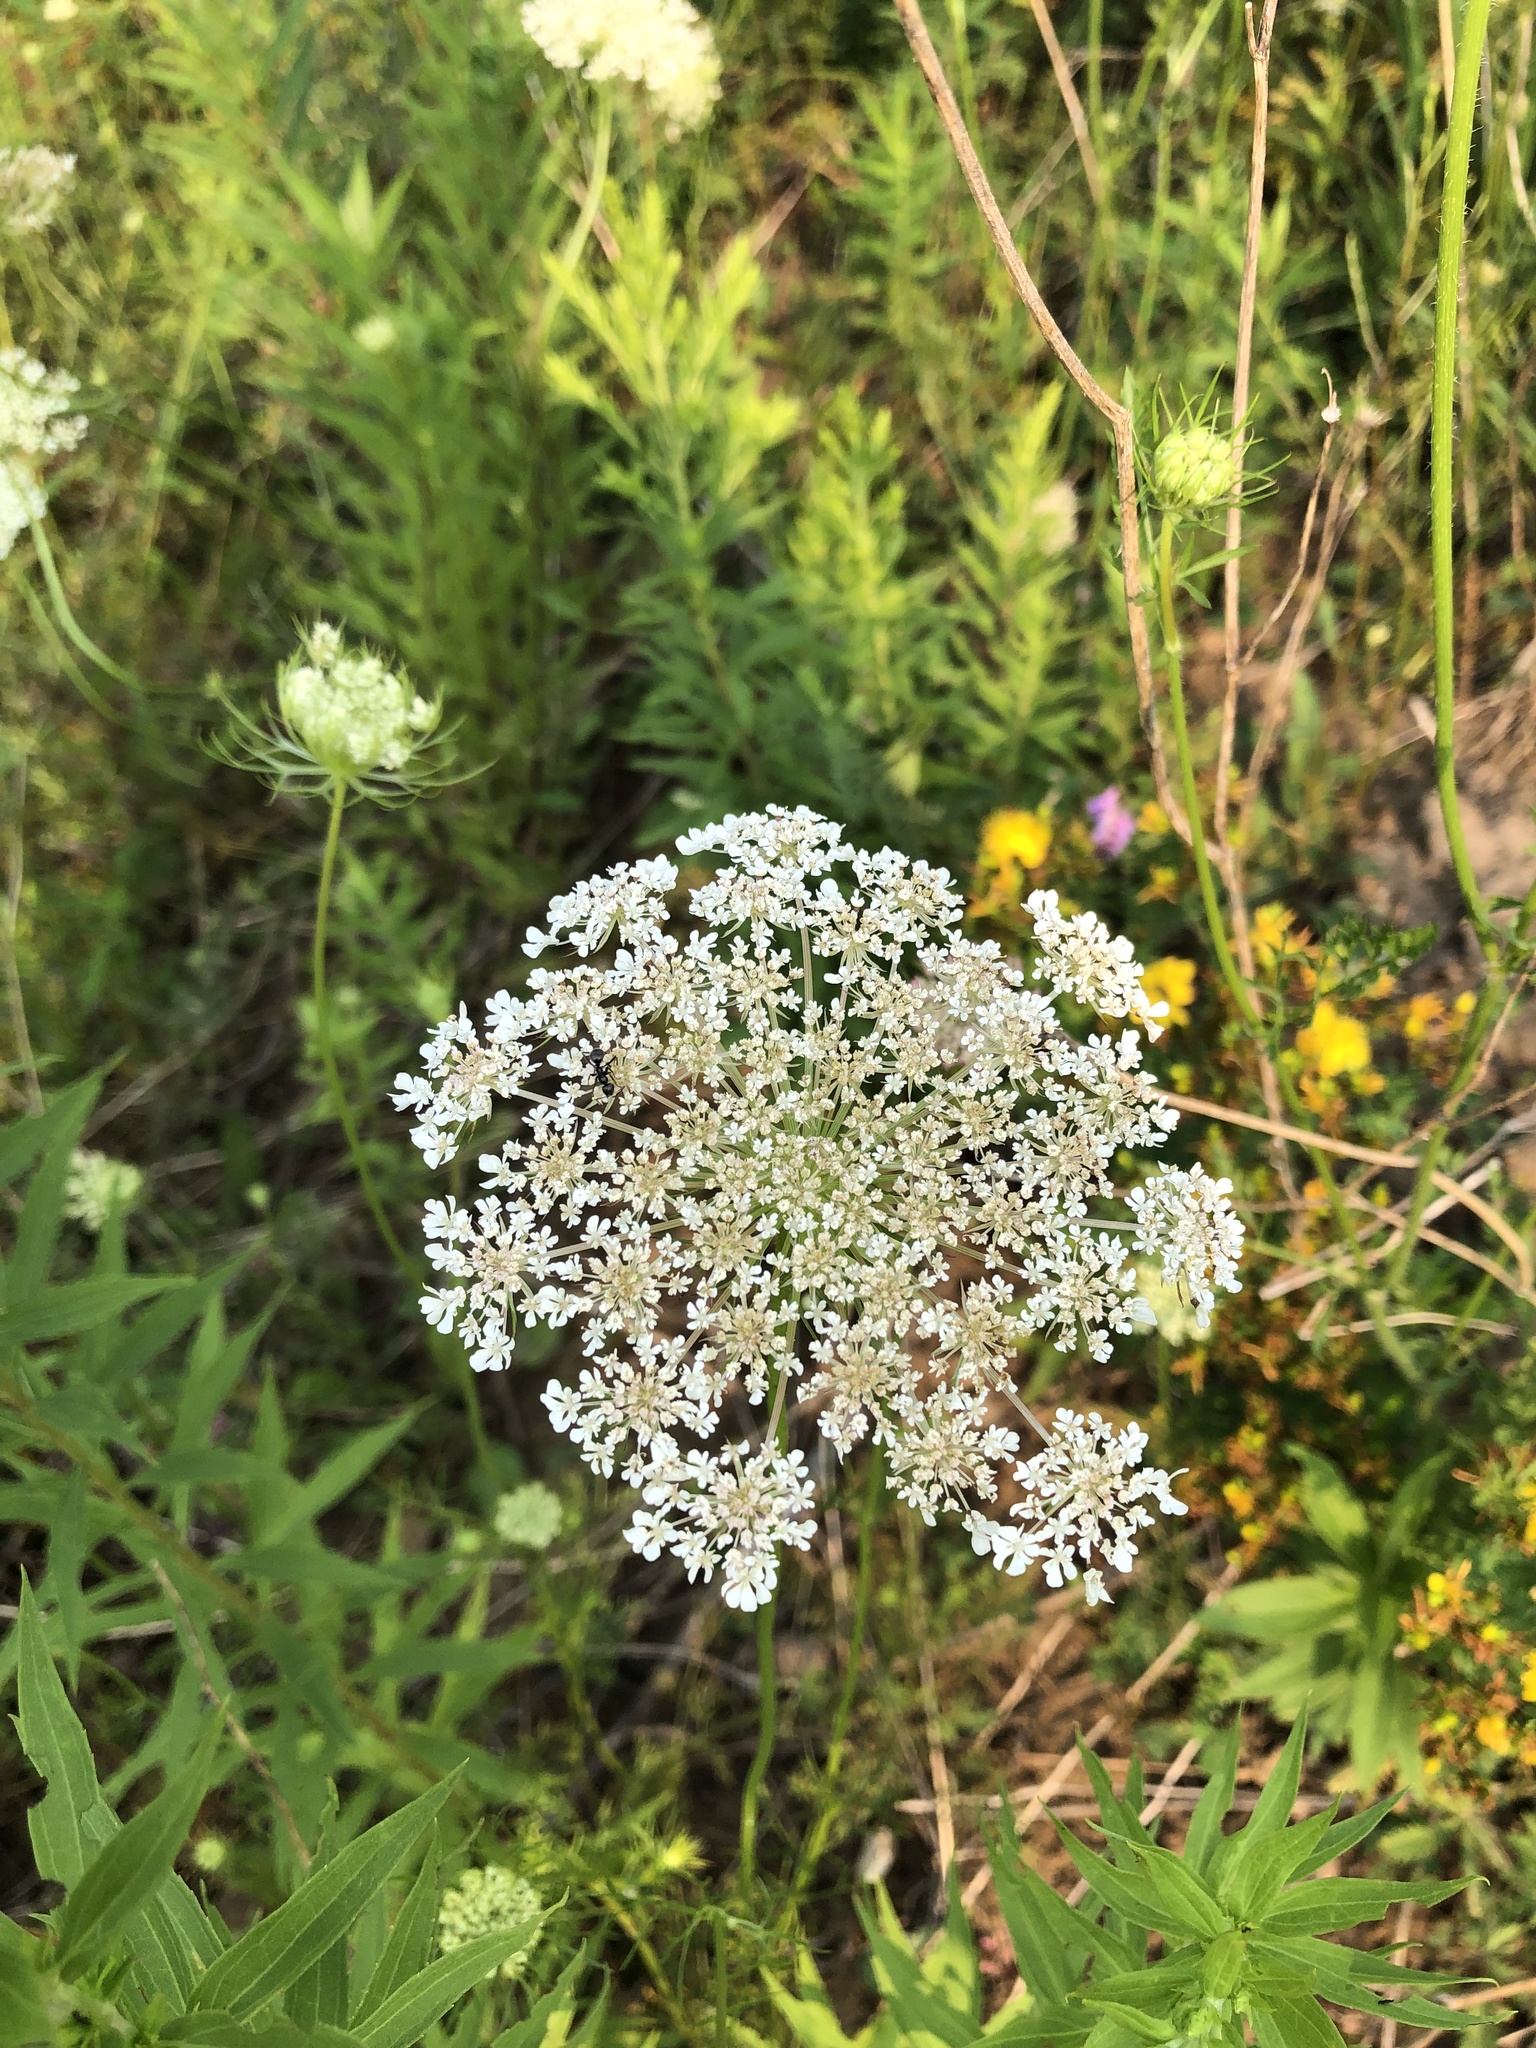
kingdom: Plantae
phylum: Tracheophyta
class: Magnoliopsida
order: Apiales
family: Apiaceae
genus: Daucus
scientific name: Daucus carota
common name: Wild carrot
